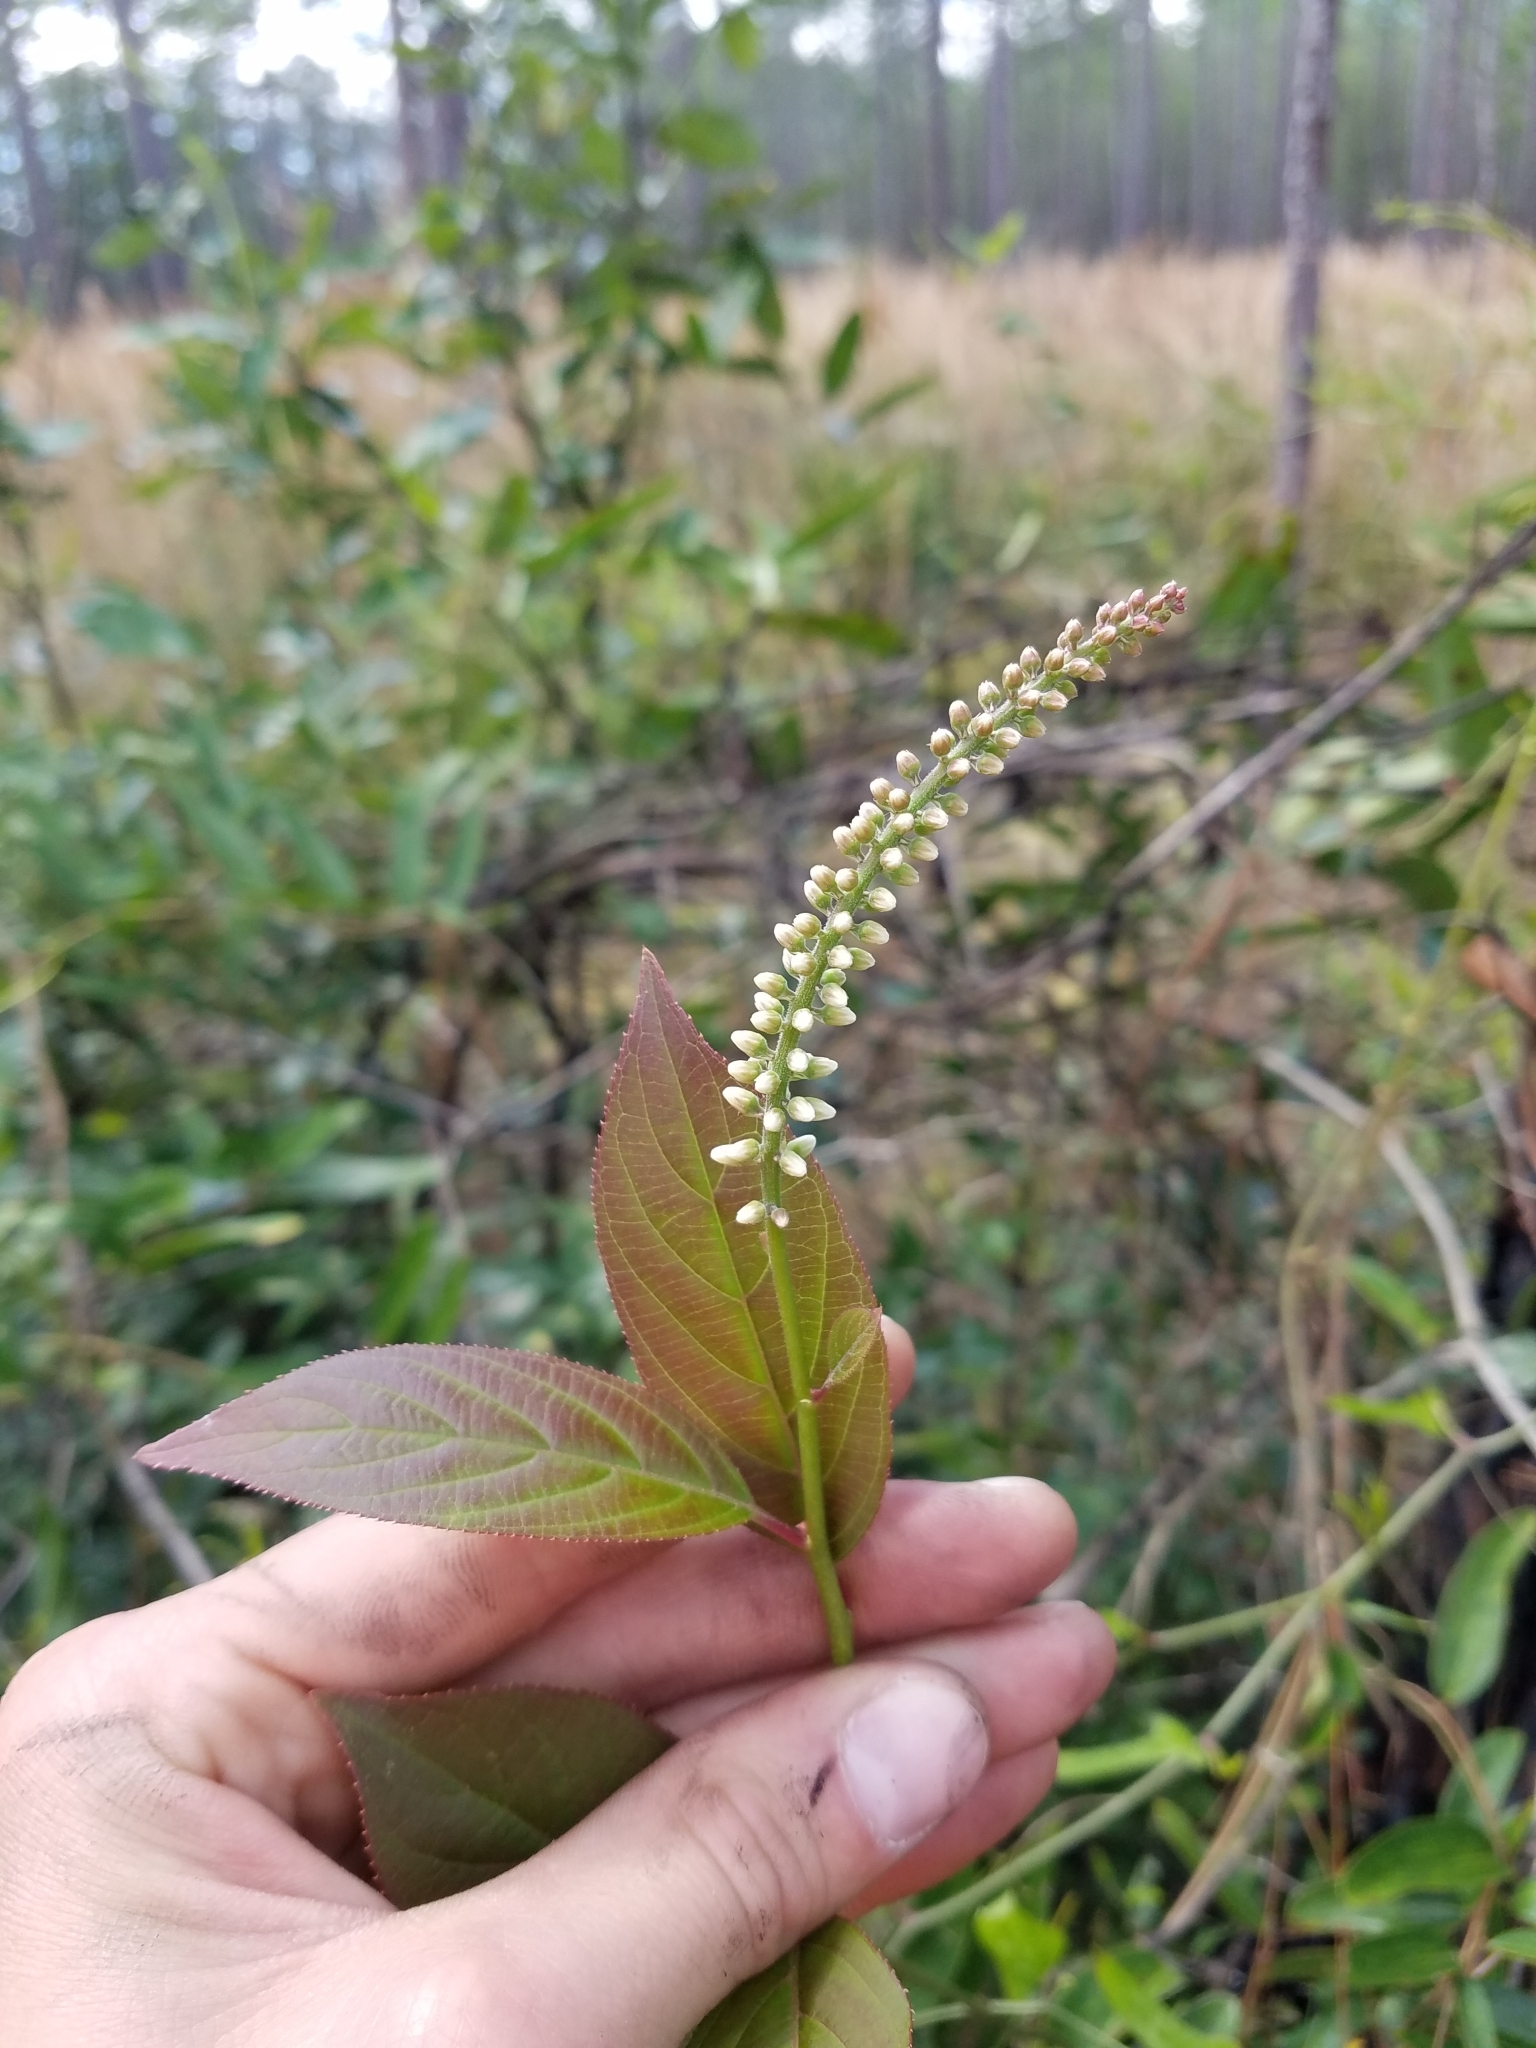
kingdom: Plantae
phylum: Tracheophyta
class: Magnoliopsida
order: Saxifragales
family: Iteaceae
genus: Itea
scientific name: Itea virginica
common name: Sweetspire
